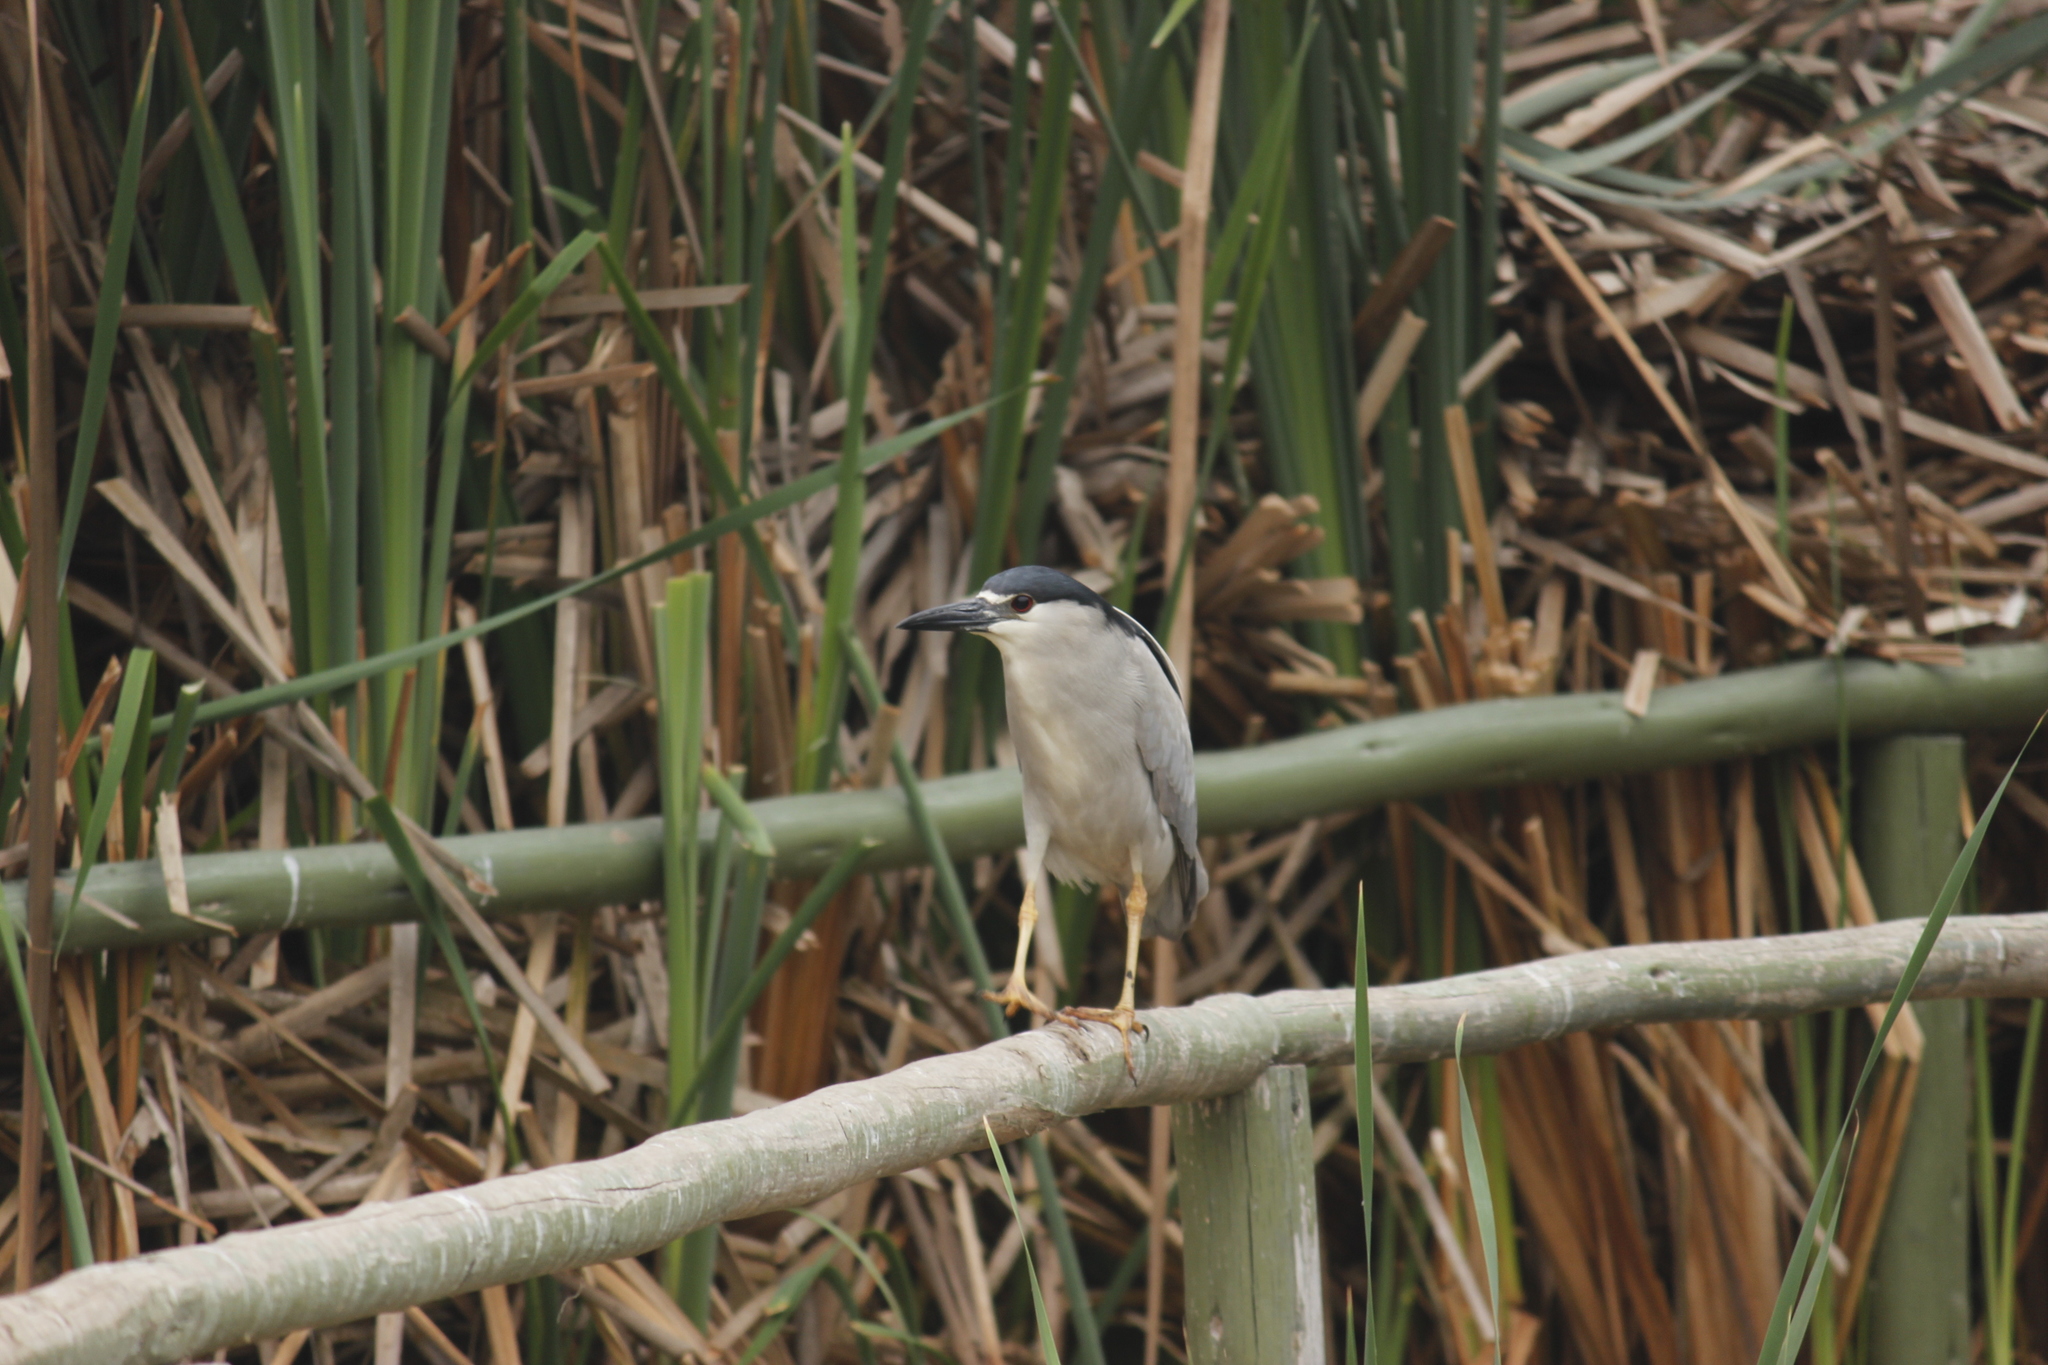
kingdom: Animalia
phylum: Chordata
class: Aves
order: Pelecaniformes
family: Ardeidae
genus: Nycticorax
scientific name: Nycticorax nycticorax
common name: Black-crowned night heron
